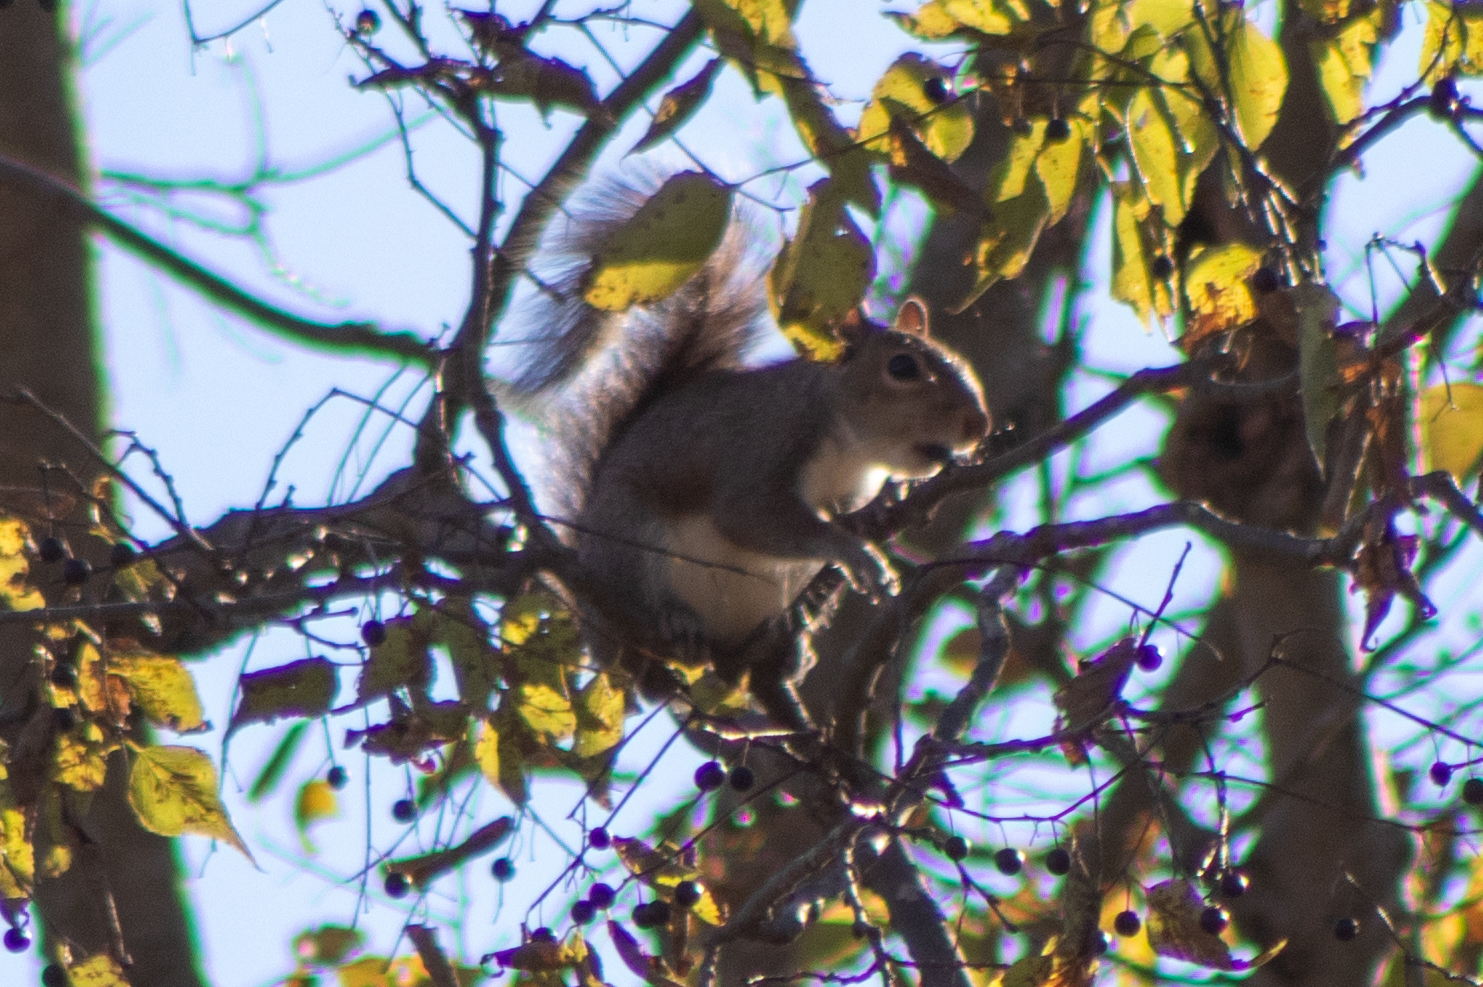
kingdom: Animalia
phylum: Chordata
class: Mammalia
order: Rodentia
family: Sciuridae
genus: Sciurus
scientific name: Sciurus carolinensis
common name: Eastern gray squirrel
